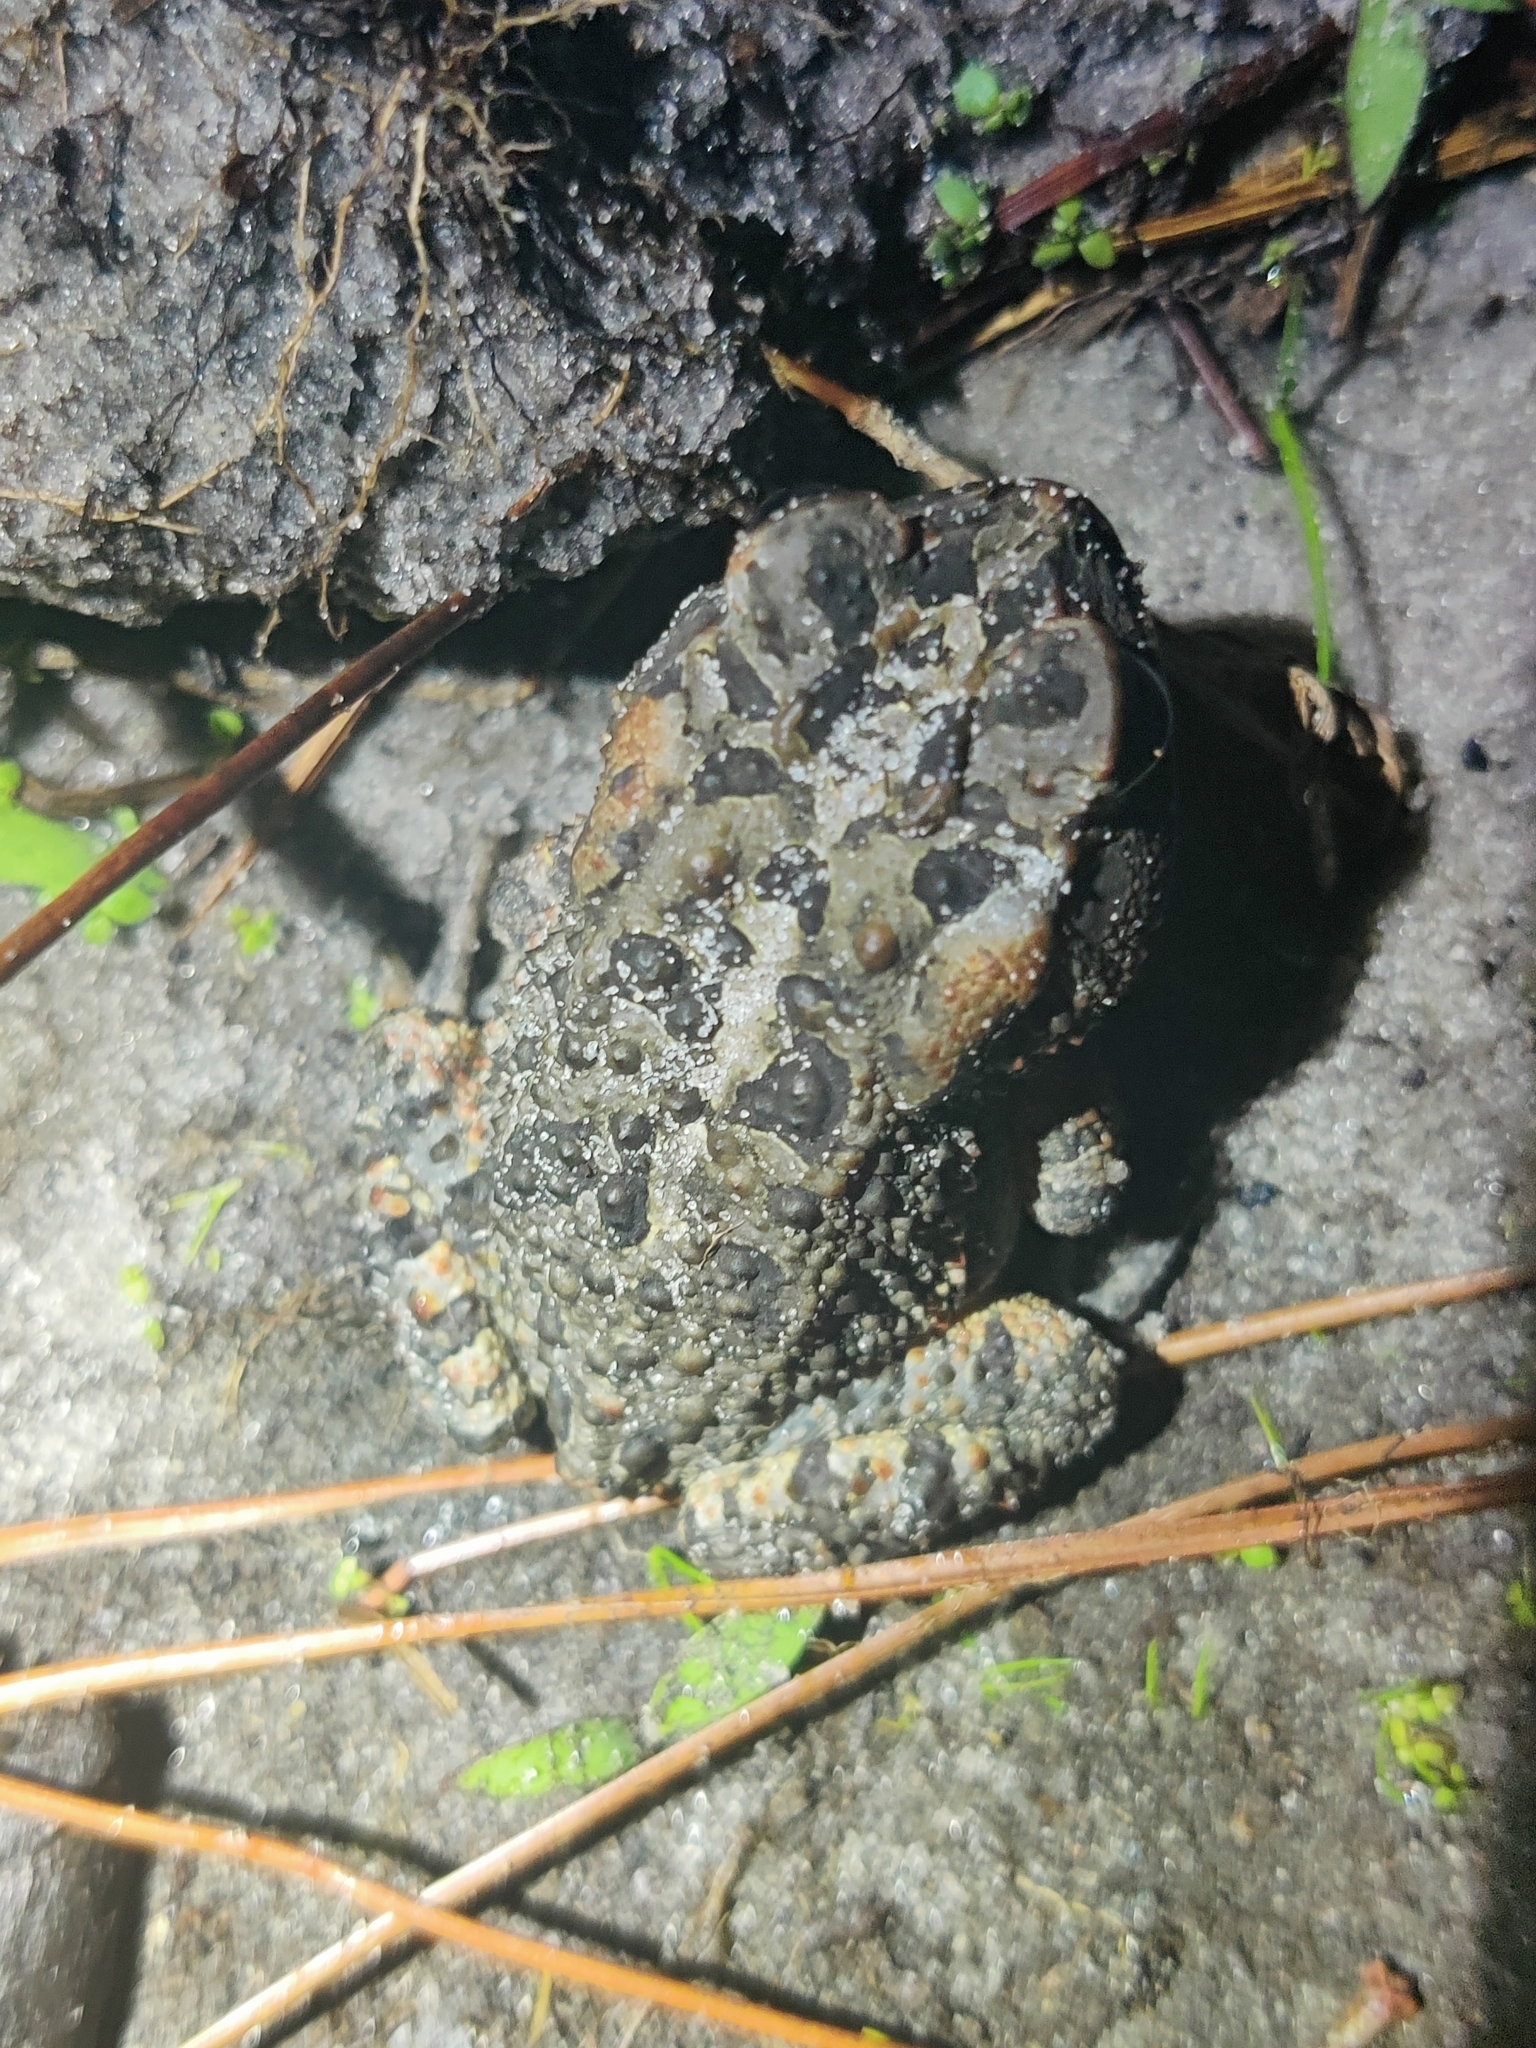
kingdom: Animalia
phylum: Chordata
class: Amphibia
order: Anura
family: Bufonidae
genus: Anaxyrus
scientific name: Anaxyrus terrestris
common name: Southern toad
